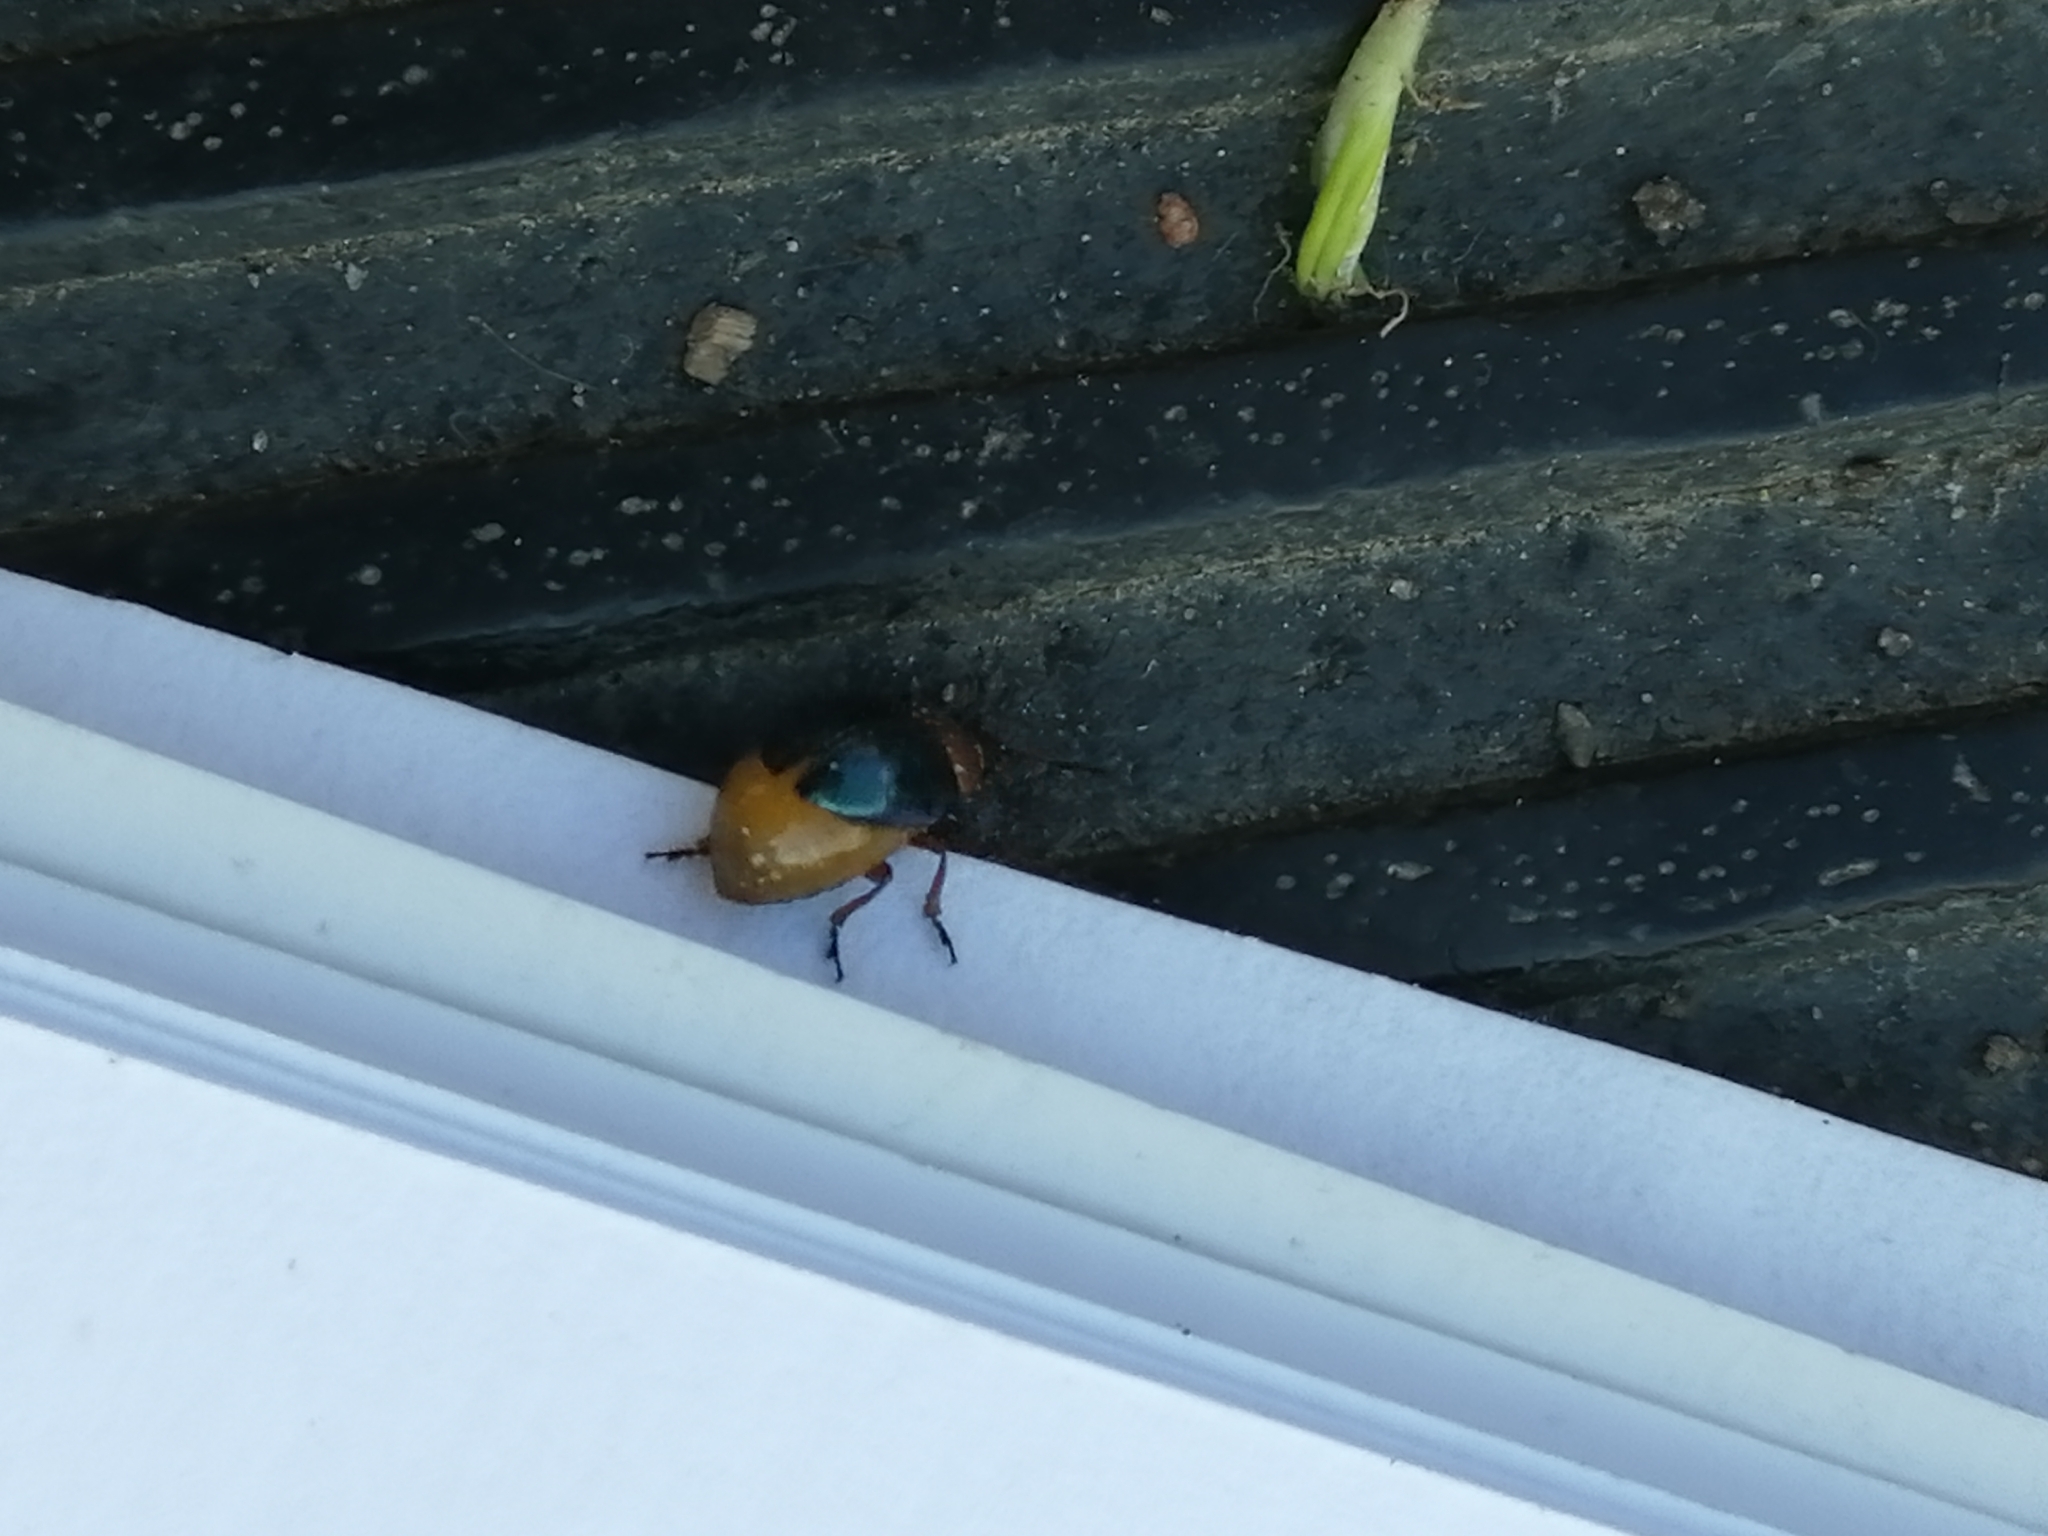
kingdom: Animalia
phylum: Arthropoda
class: Insecta
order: Coleoptera
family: Chrysomelidae
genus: Gastrophysa
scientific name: Gastrophysa polygoni
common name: Knotweed leaf beetle
